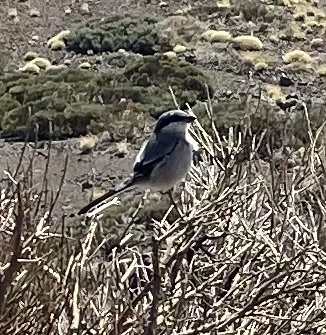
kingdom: Animalia
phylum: Chordata
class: Aves
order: Passeriformes
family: Laniidae
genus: Lanius
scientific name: Lanius excubitor
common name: Great grey shrike
